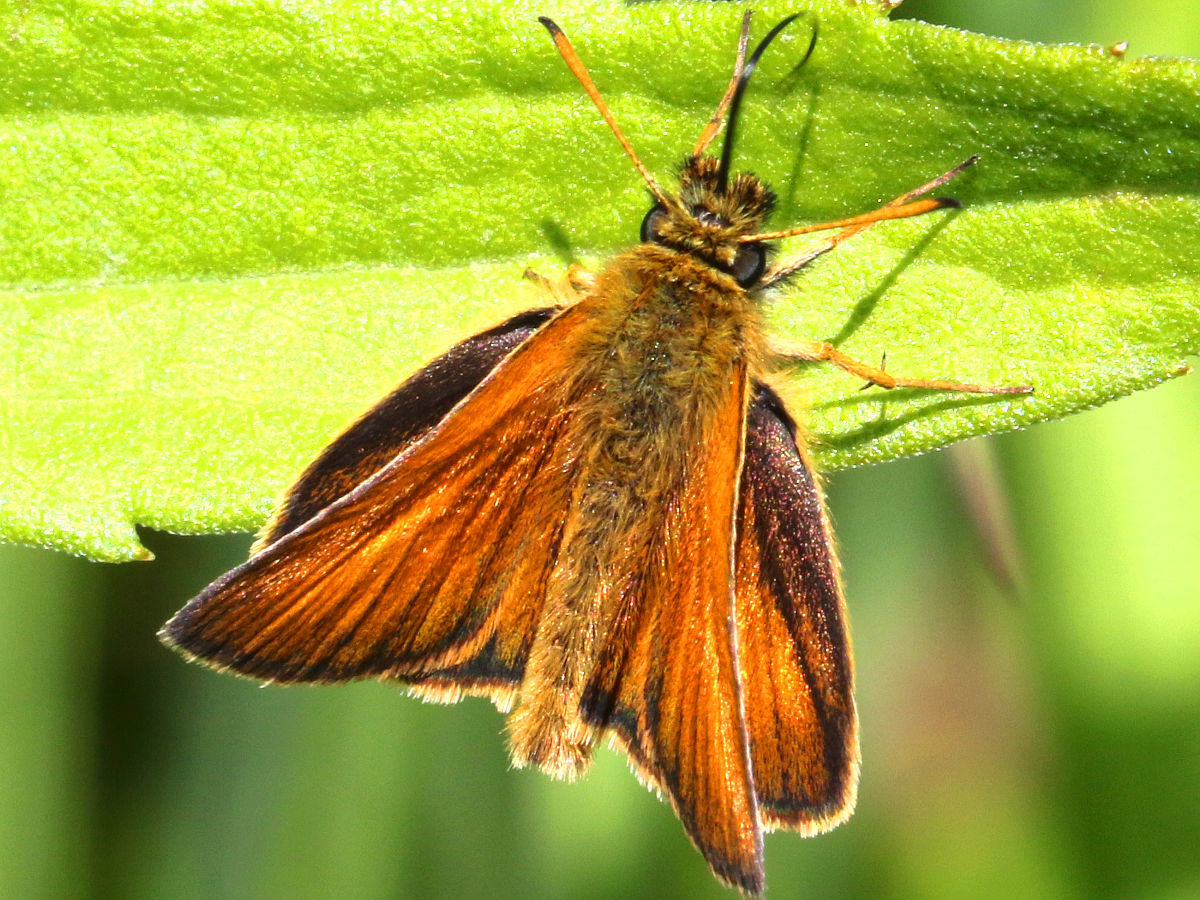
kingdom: Animalia
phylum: Arthropoda
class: Insecta
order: Lepidoptera
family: Hesperiidae
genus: Thymelicus
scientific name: Thymelicus lineola
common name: Essex skipper
